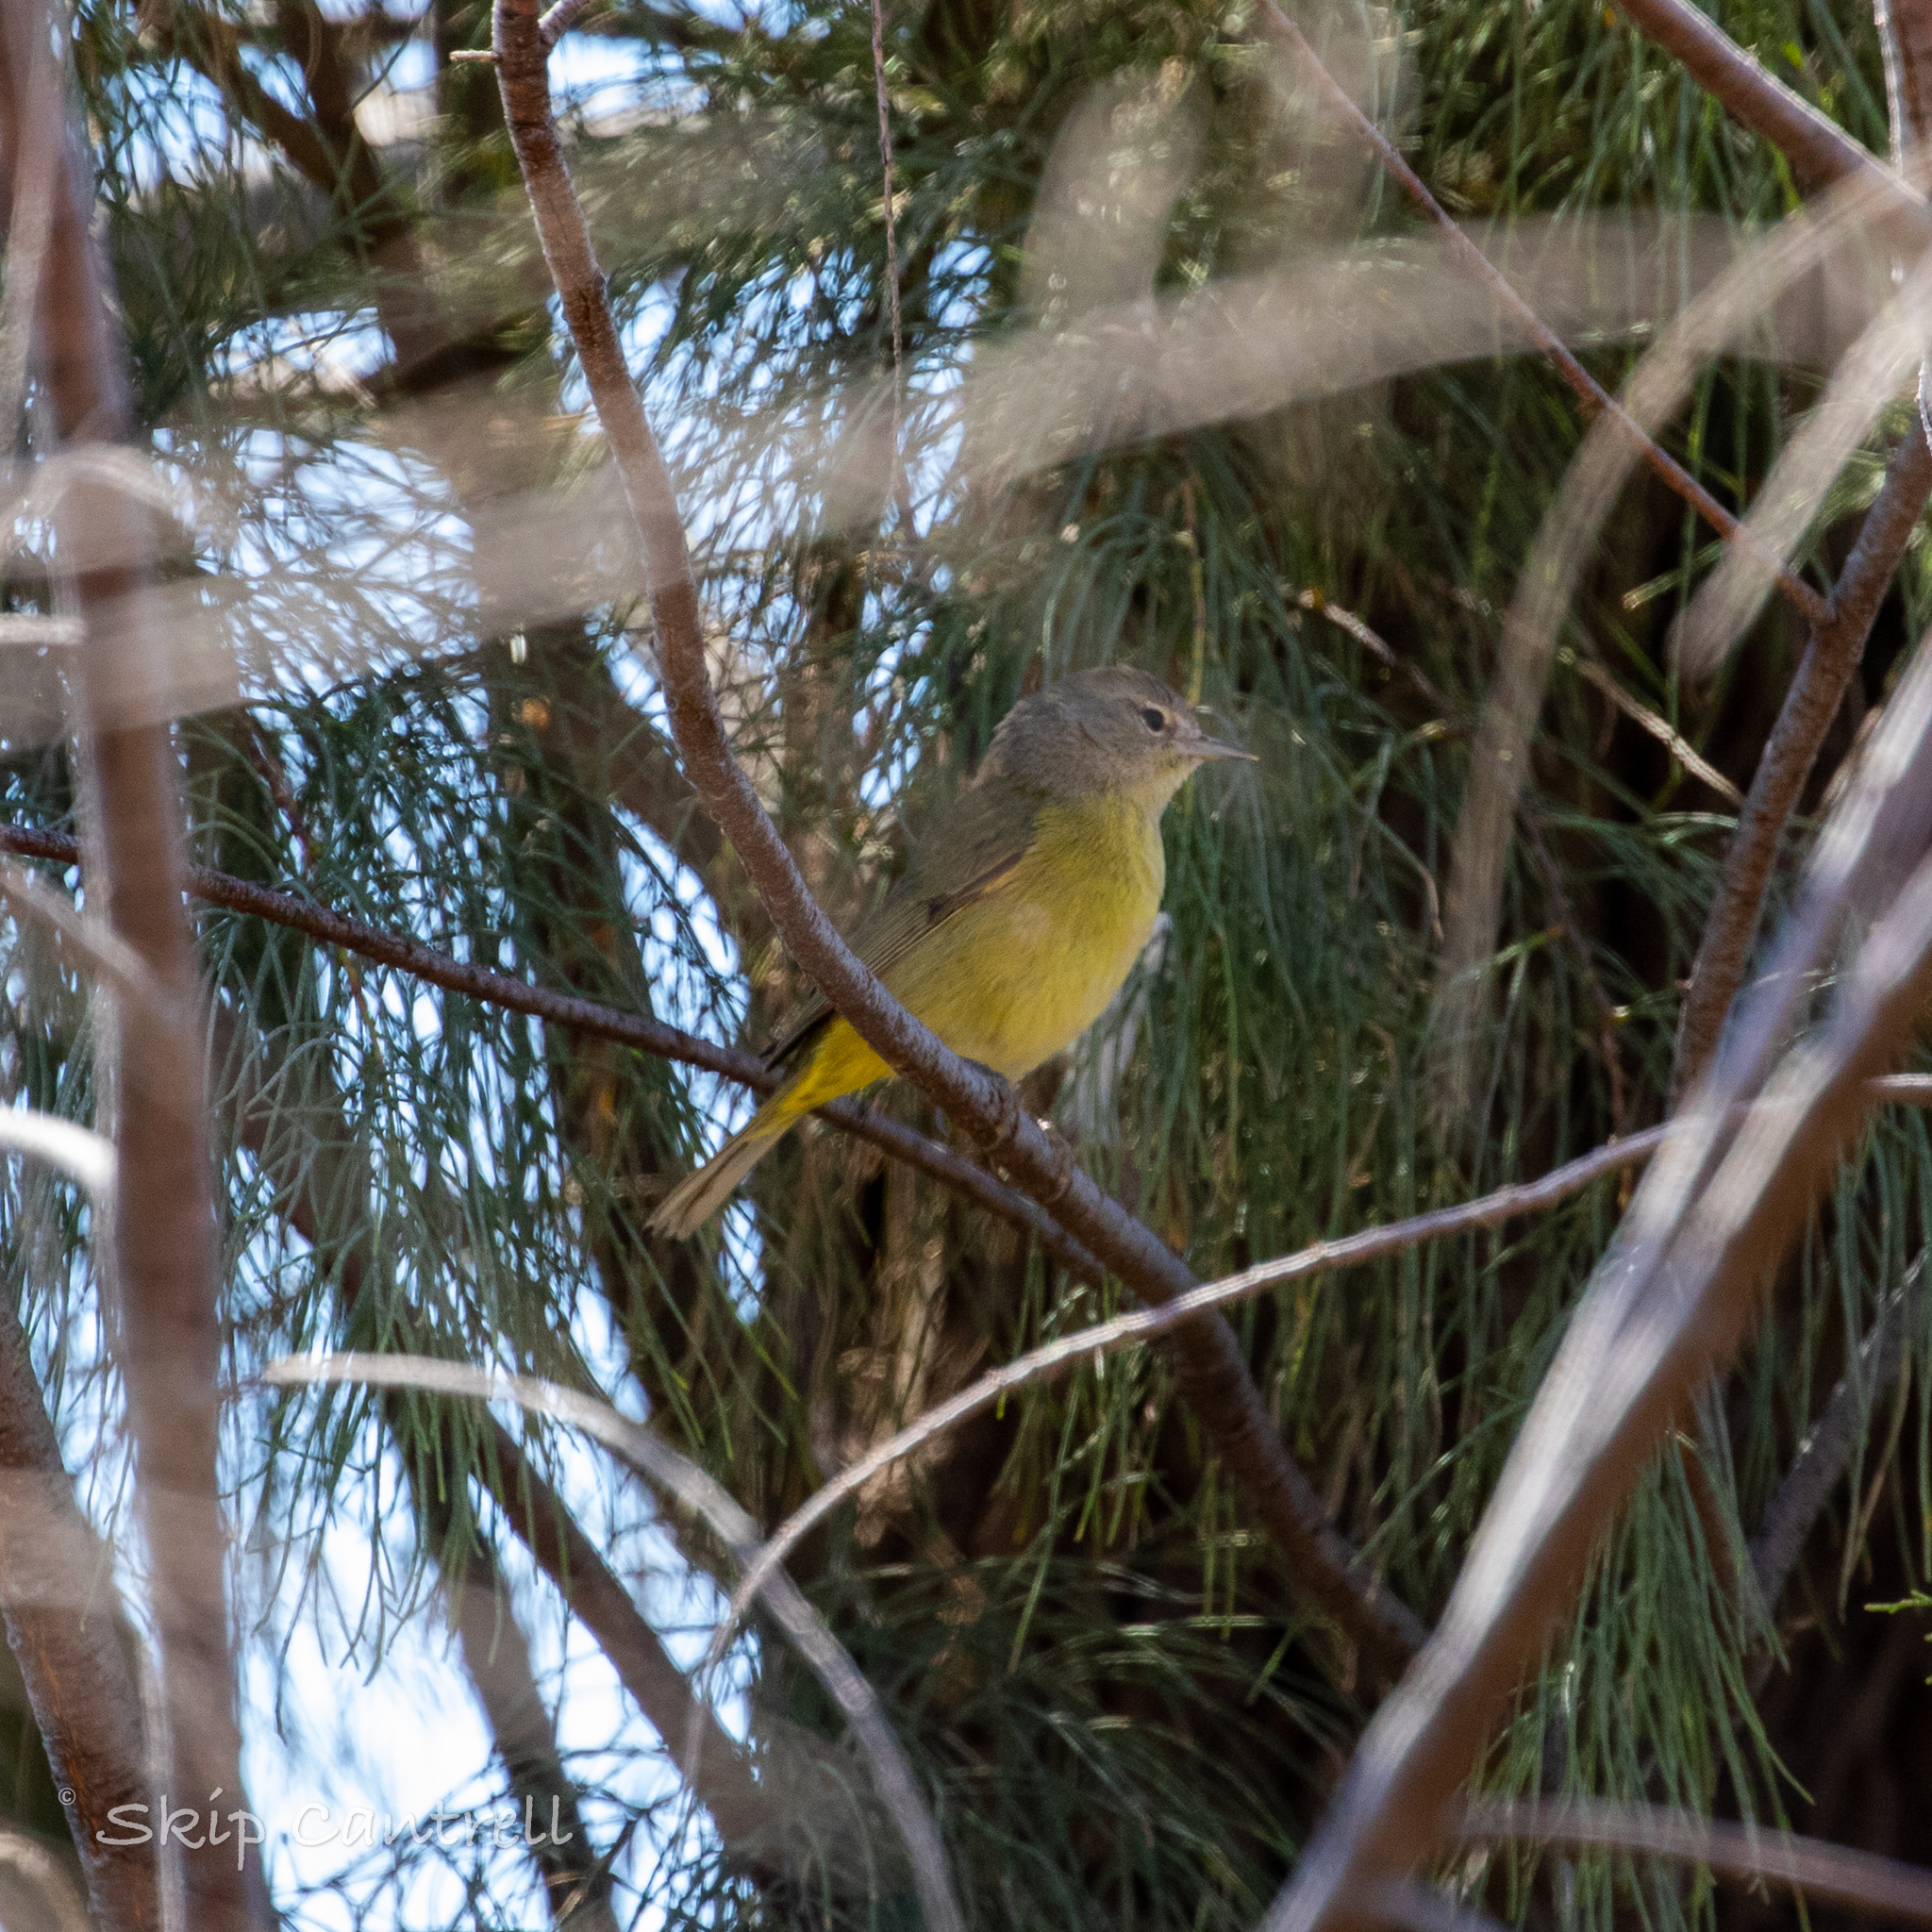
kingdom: Animalia
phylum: Chordata
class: Aves
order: Passeriformes
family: Parulidae
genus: Leiothlypis
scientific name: Leiothlypis celata
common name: Orange-crowned warbler
